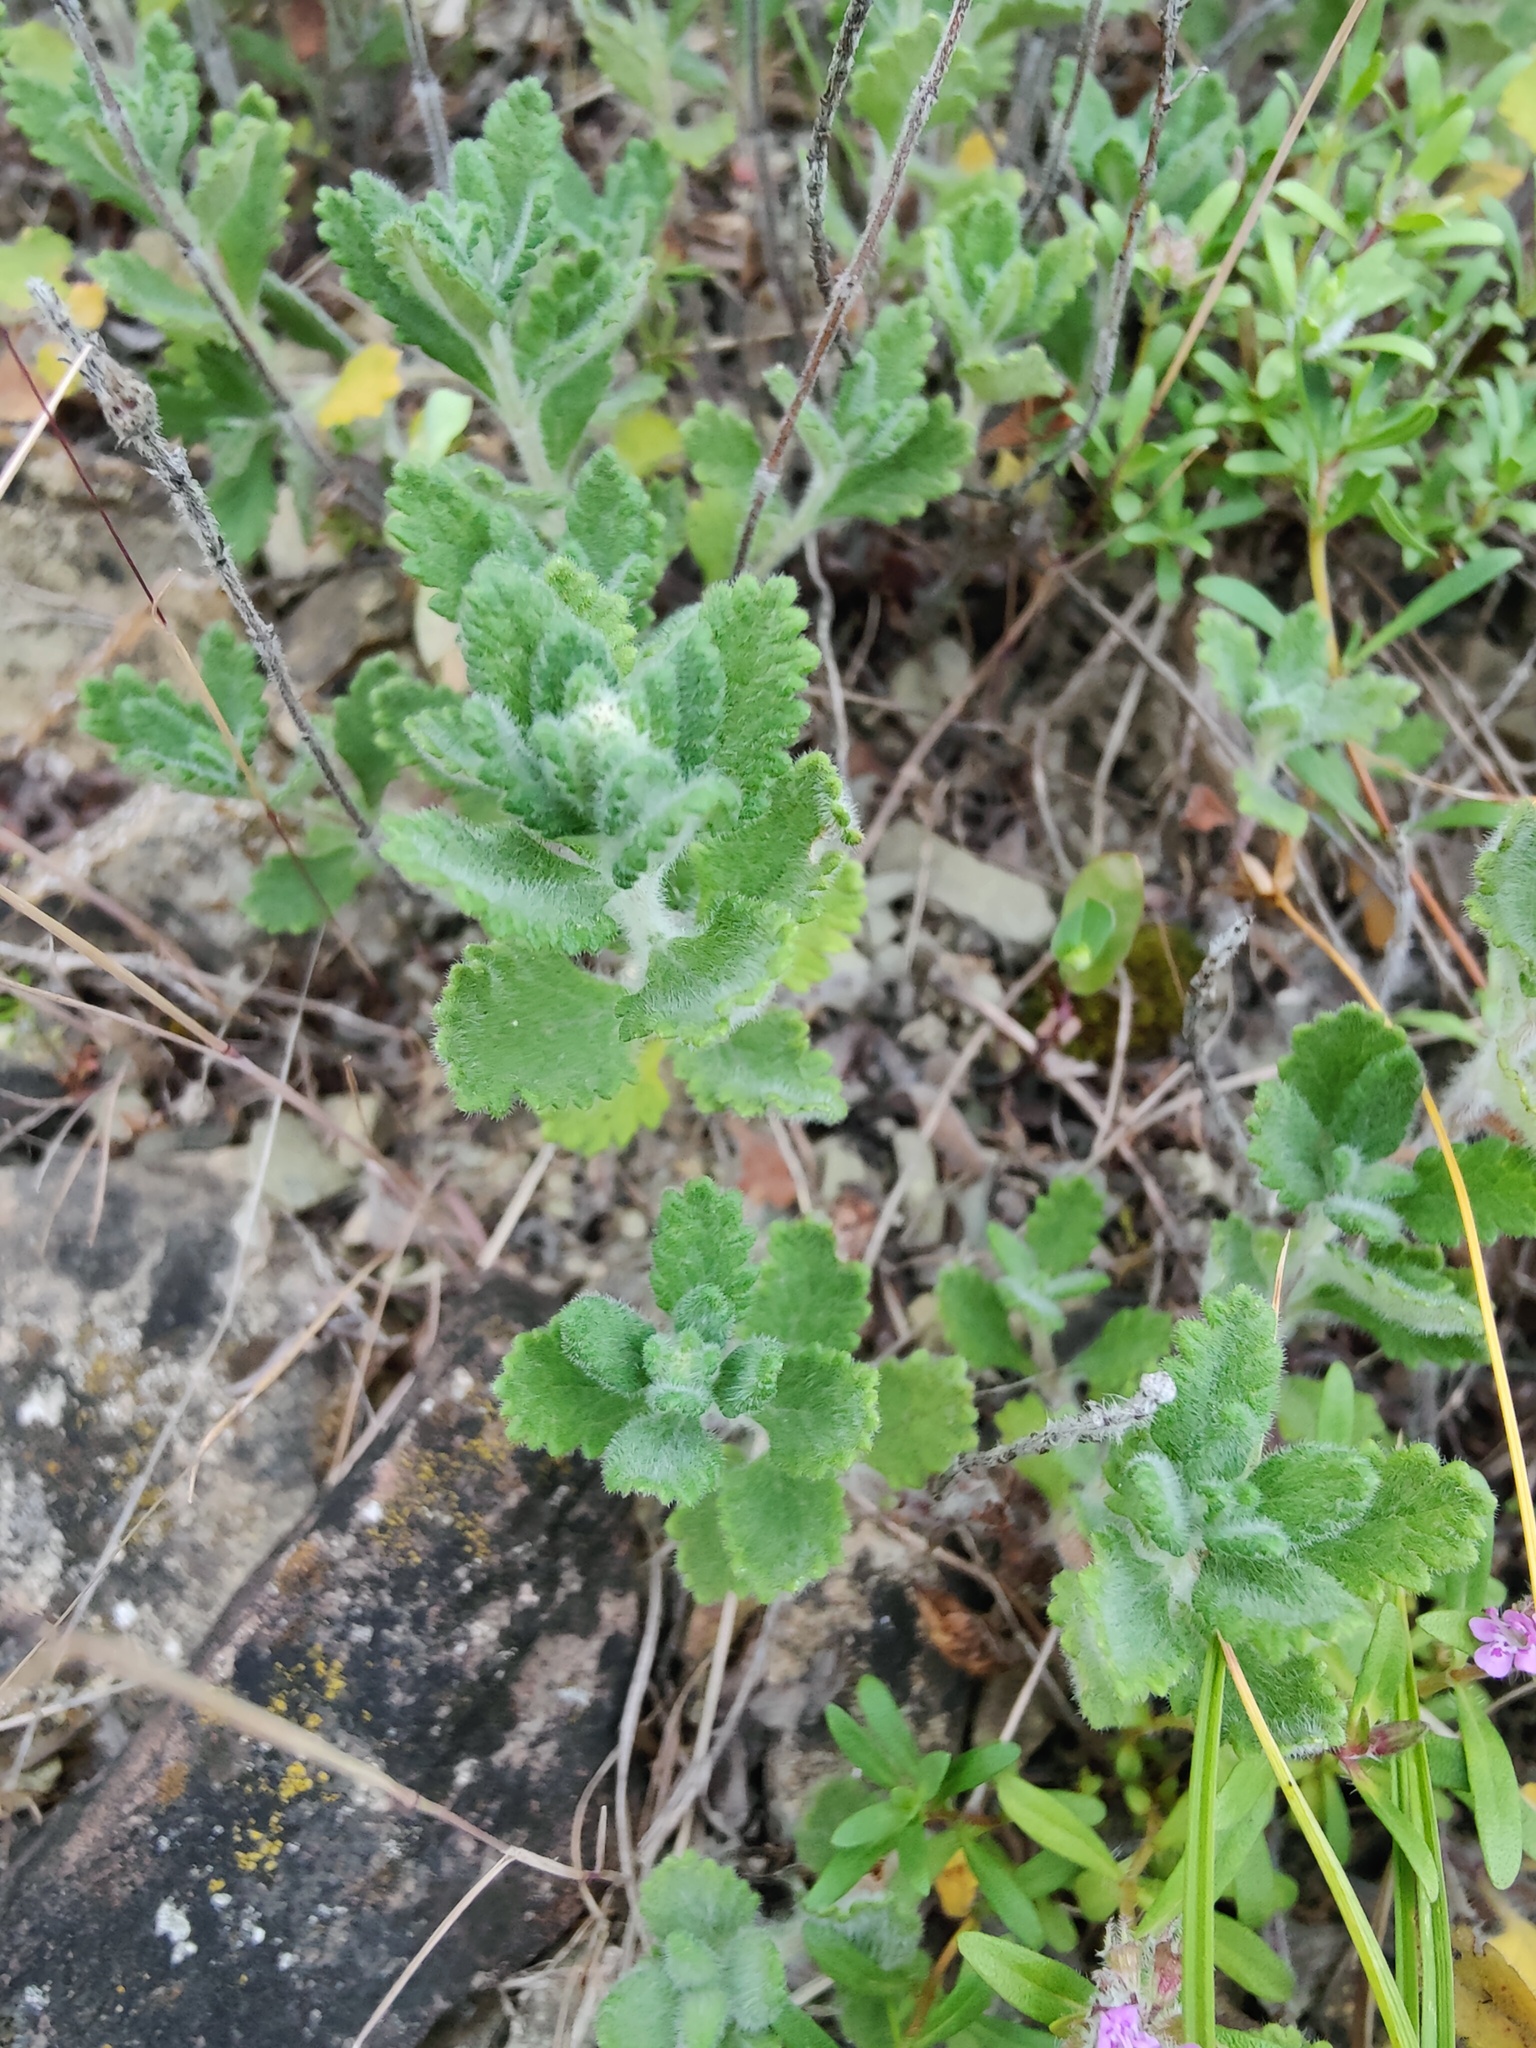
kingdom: Plantae
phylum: Tracheophyta
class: Magnoliopsida
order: Lamiales
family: Lamiaceae
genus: Teucrium
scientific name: Teucrium chamaedrys
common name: Wall germander
